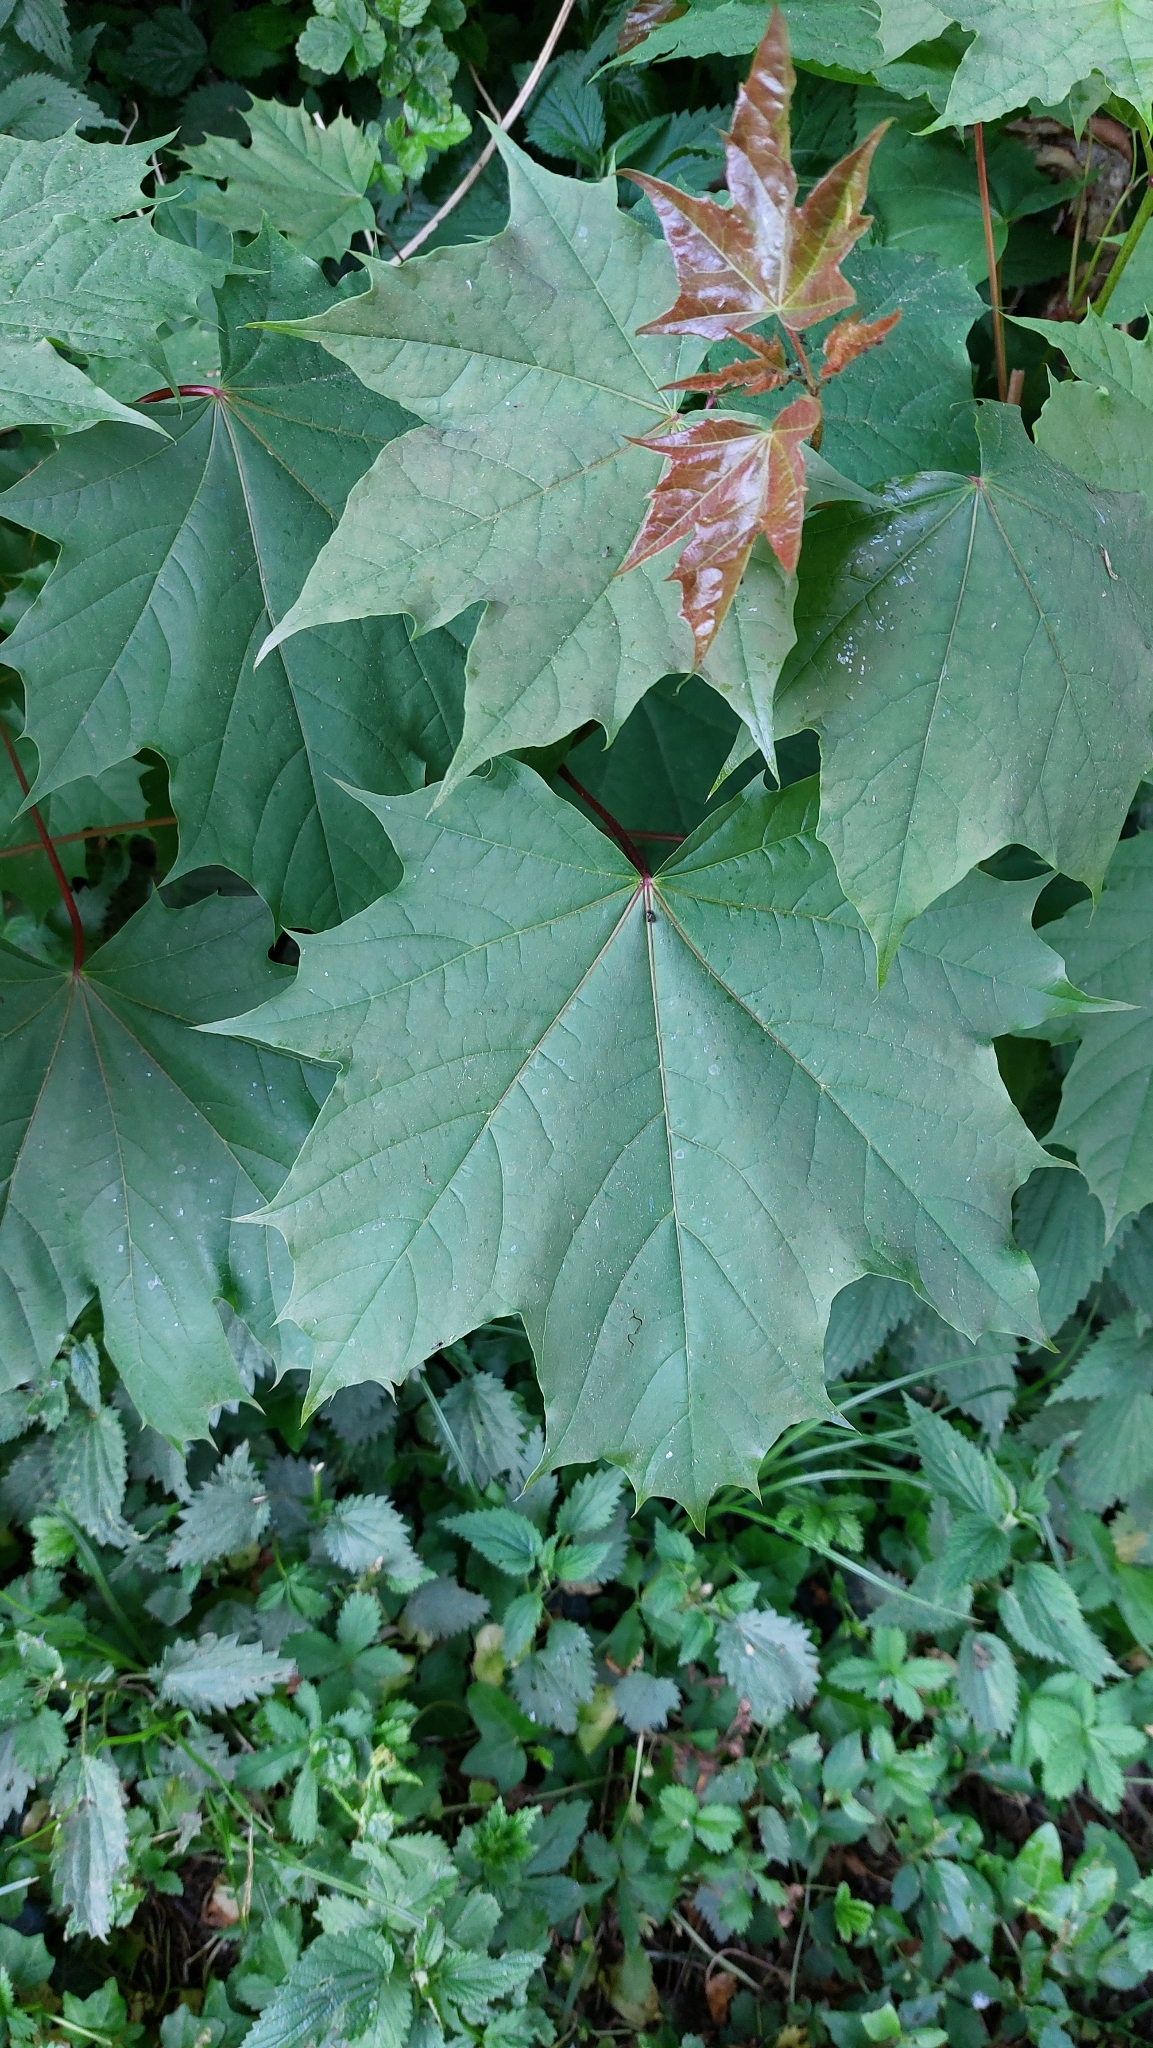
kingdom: Plantae
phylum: Tracheophyta
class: Magnoliopsida
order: Sapindales
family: Sapindaceae
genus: Acer
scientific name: Acer platanoides
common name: Norway maple
